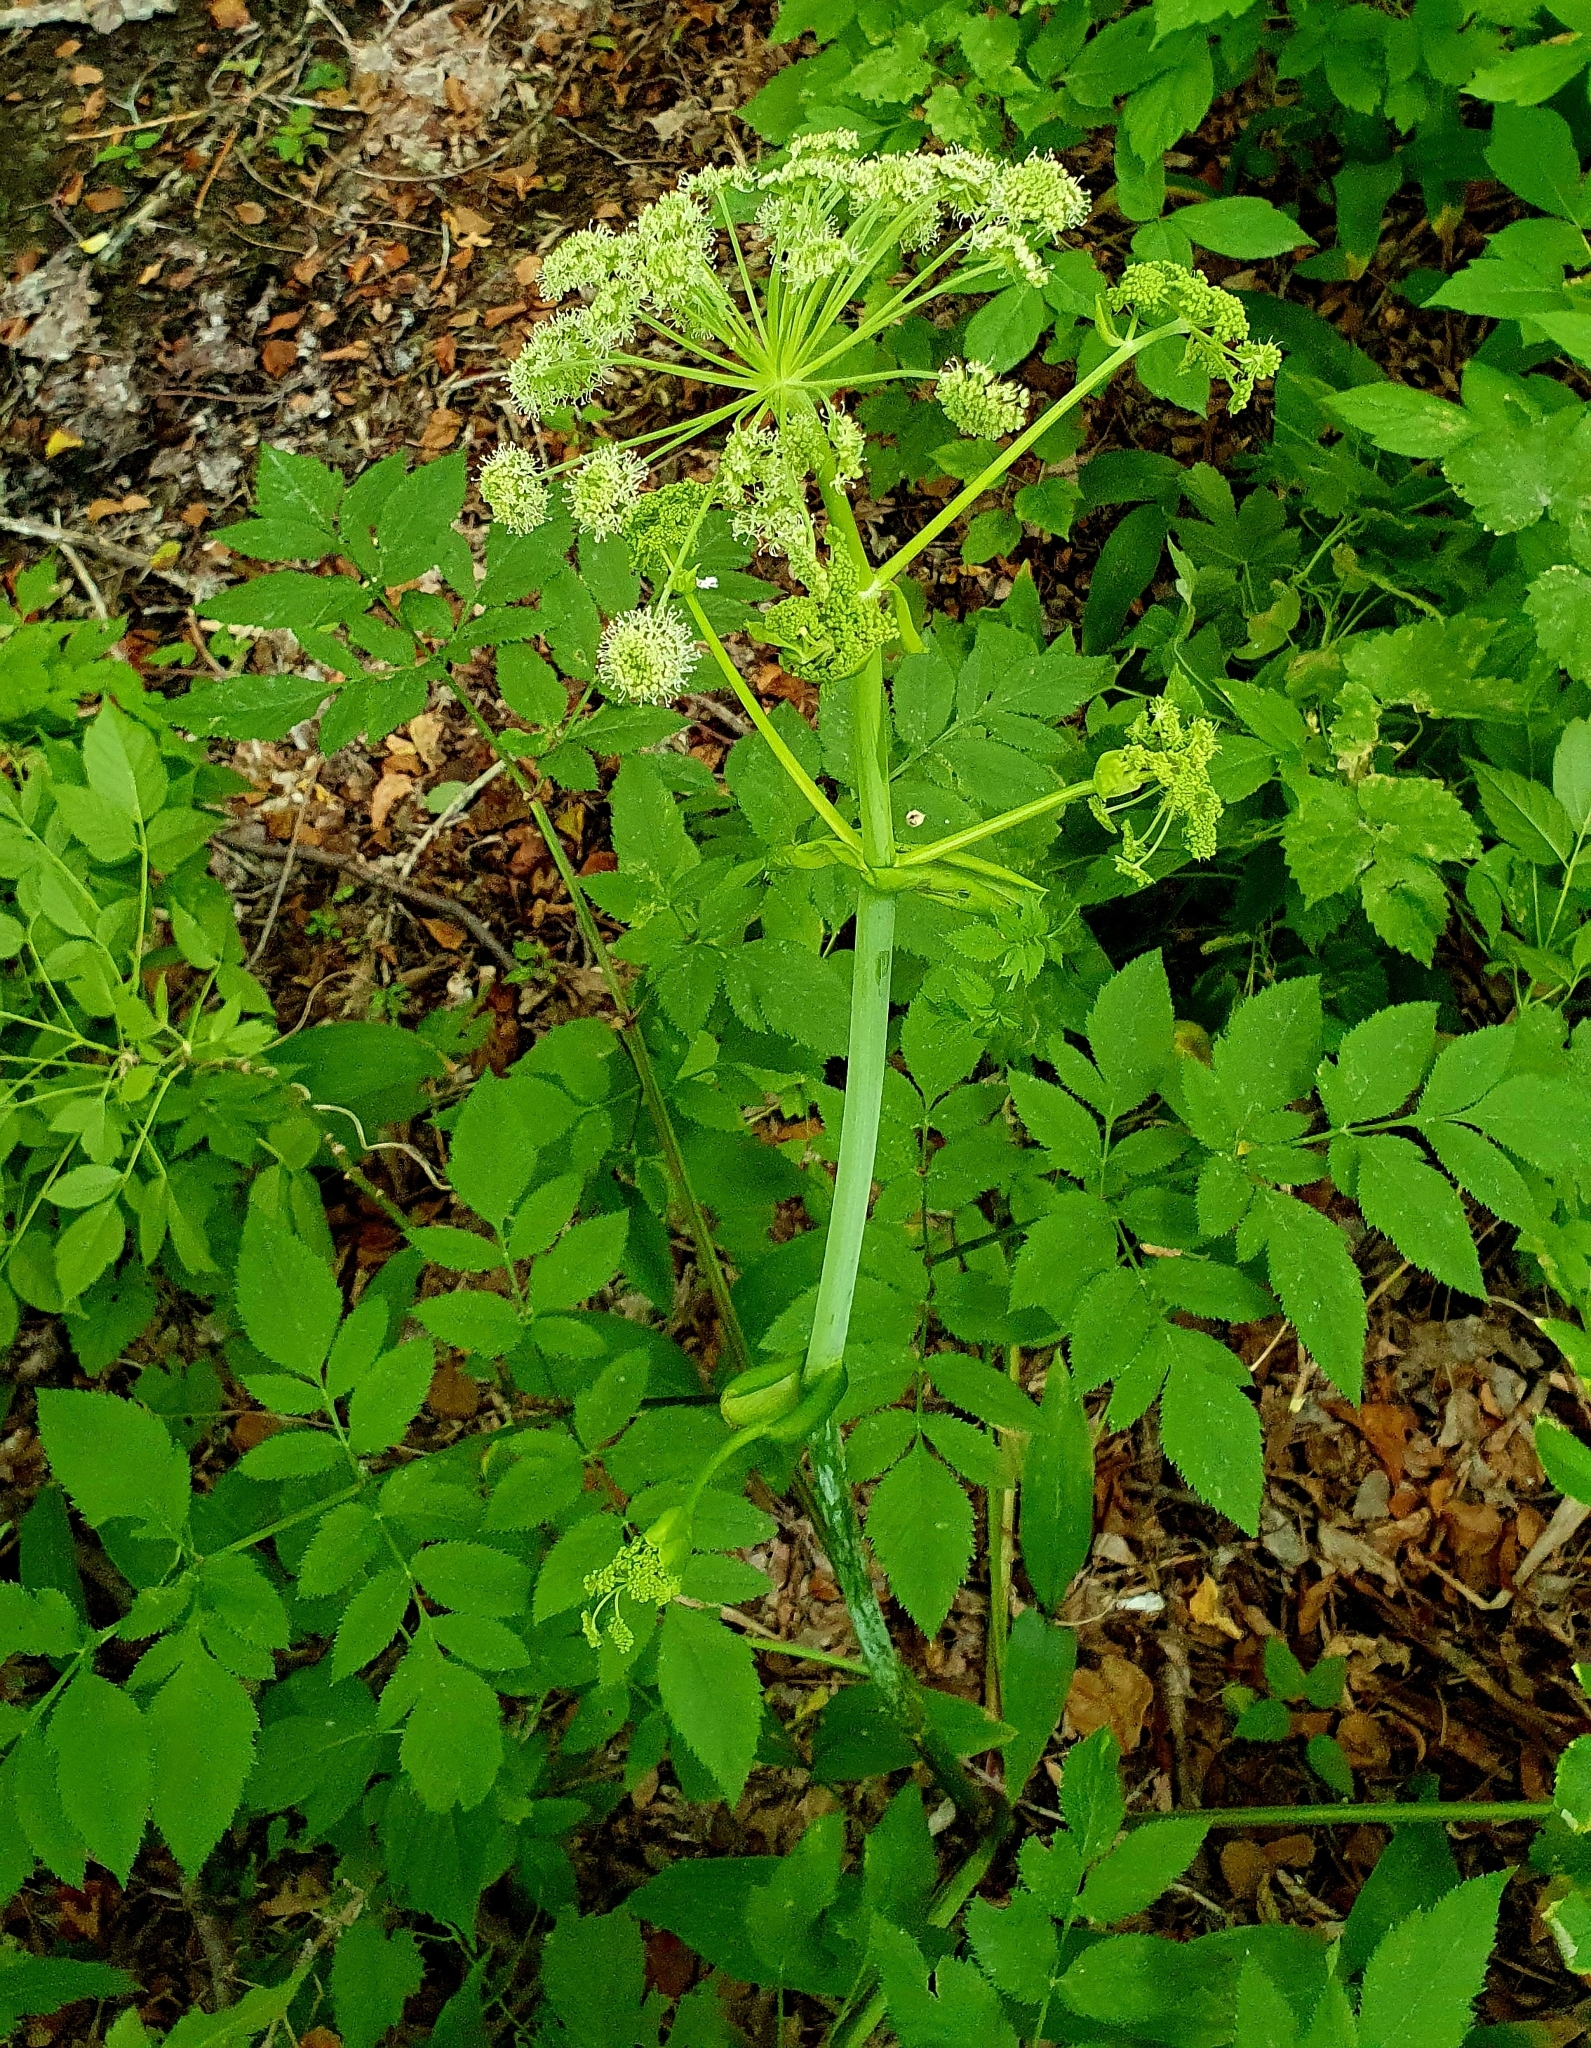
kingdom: Plantae
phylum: Tracheophyta
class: Magnoliopsida
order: Apiales
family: Apiaceae
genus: Angelica
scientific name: Angelica sylvestris
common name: Wild angelica
